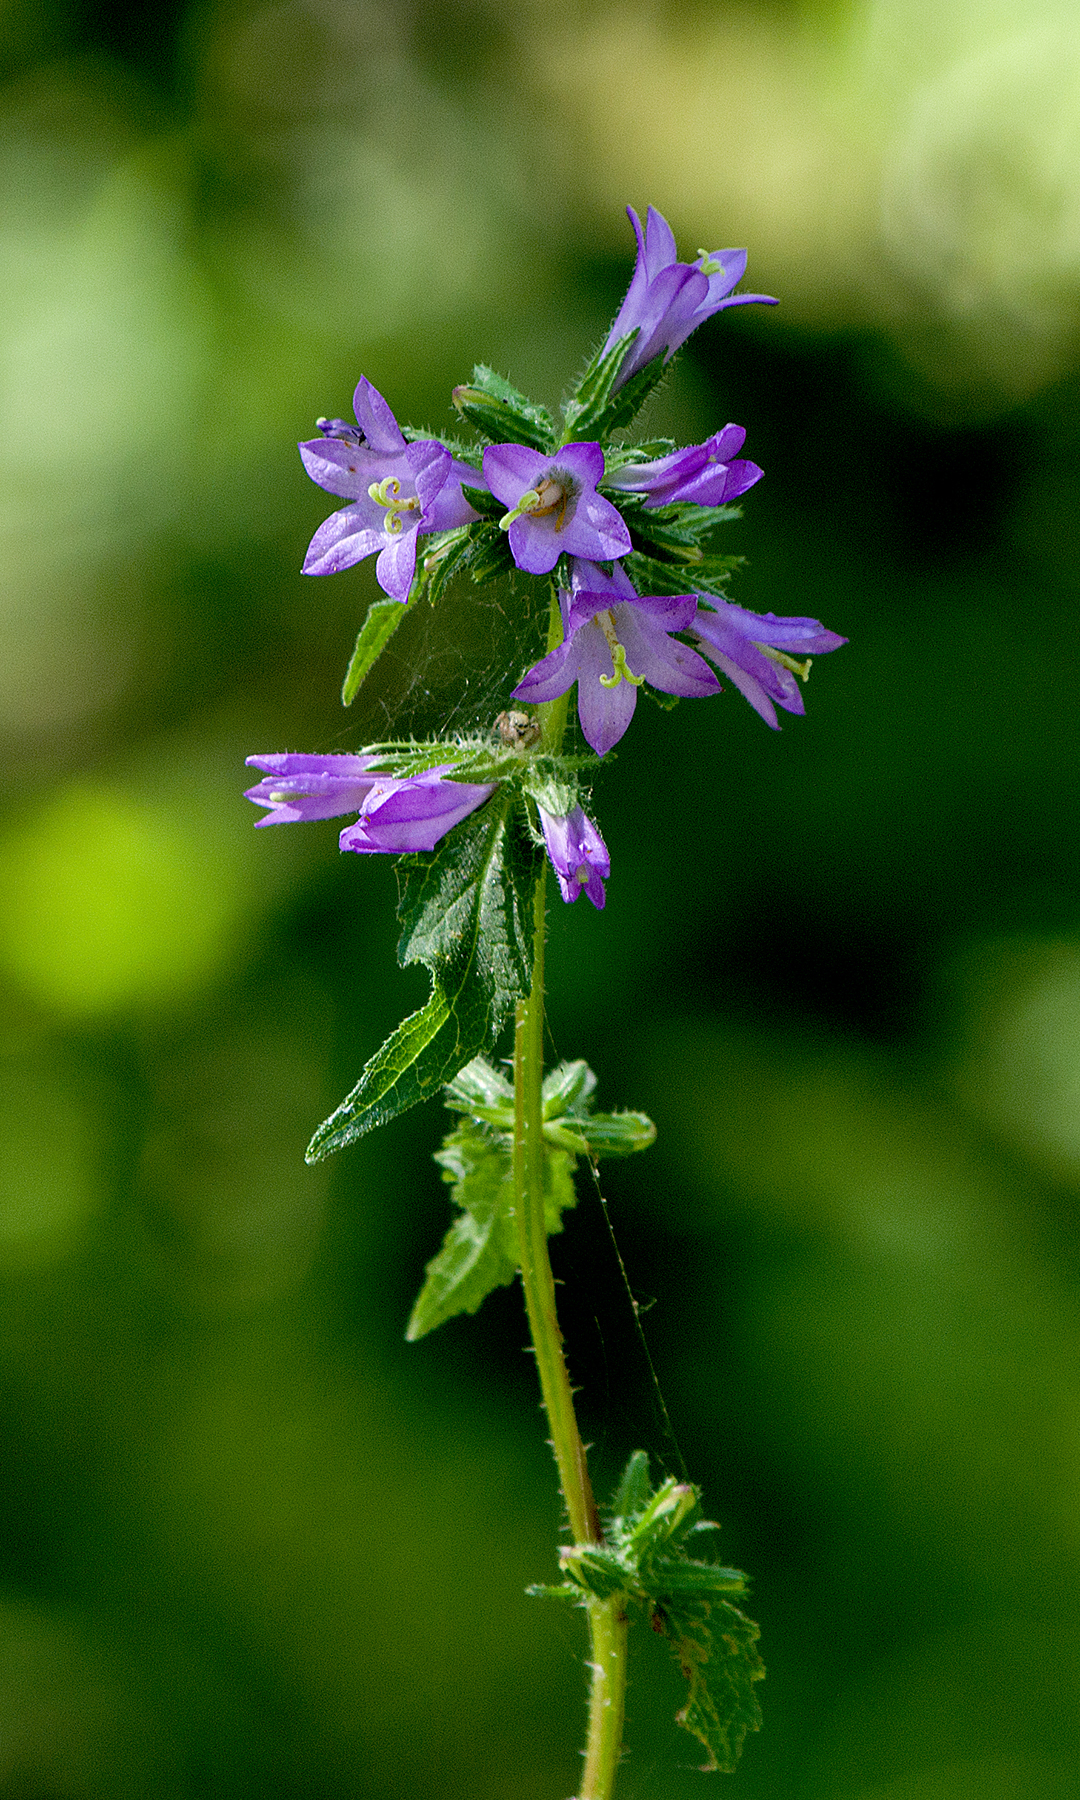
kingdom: Plantae
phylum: Tracheophyta
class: Magnoliopsida
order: Asterales
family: Campanulaceae
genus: Campanula
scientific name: Campanula trachelium
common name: Nettle-leaved bellflower
